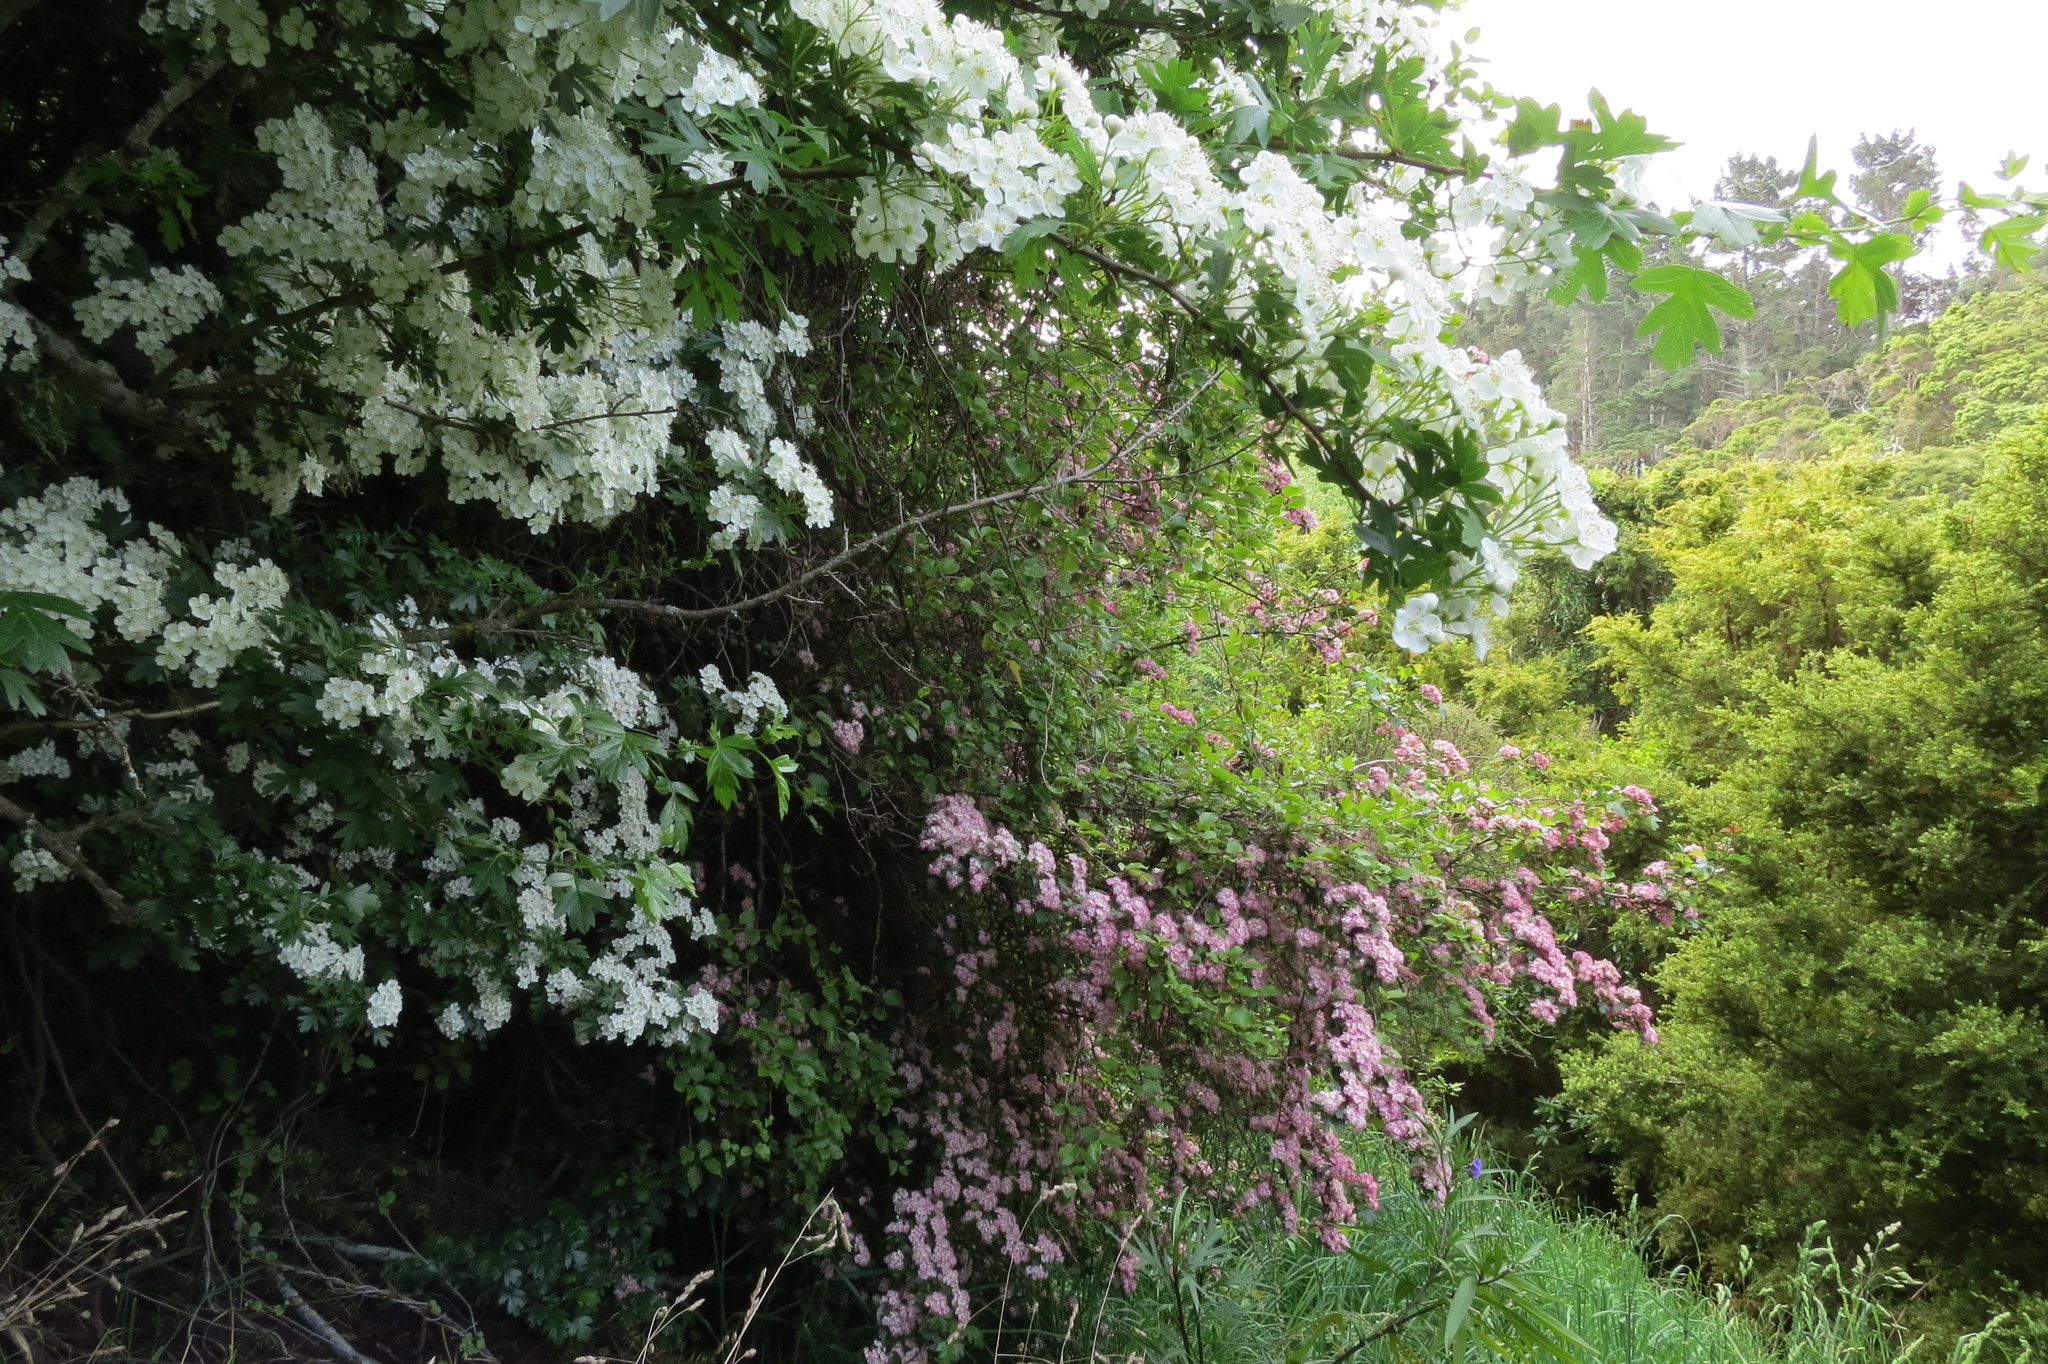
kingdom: Plantae
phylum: Tracheophyta
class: Magnoliopsida
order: Rosales
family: Rosaceae
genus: Crataegus
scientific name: Crataegus monogyna
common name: Hawthorn
